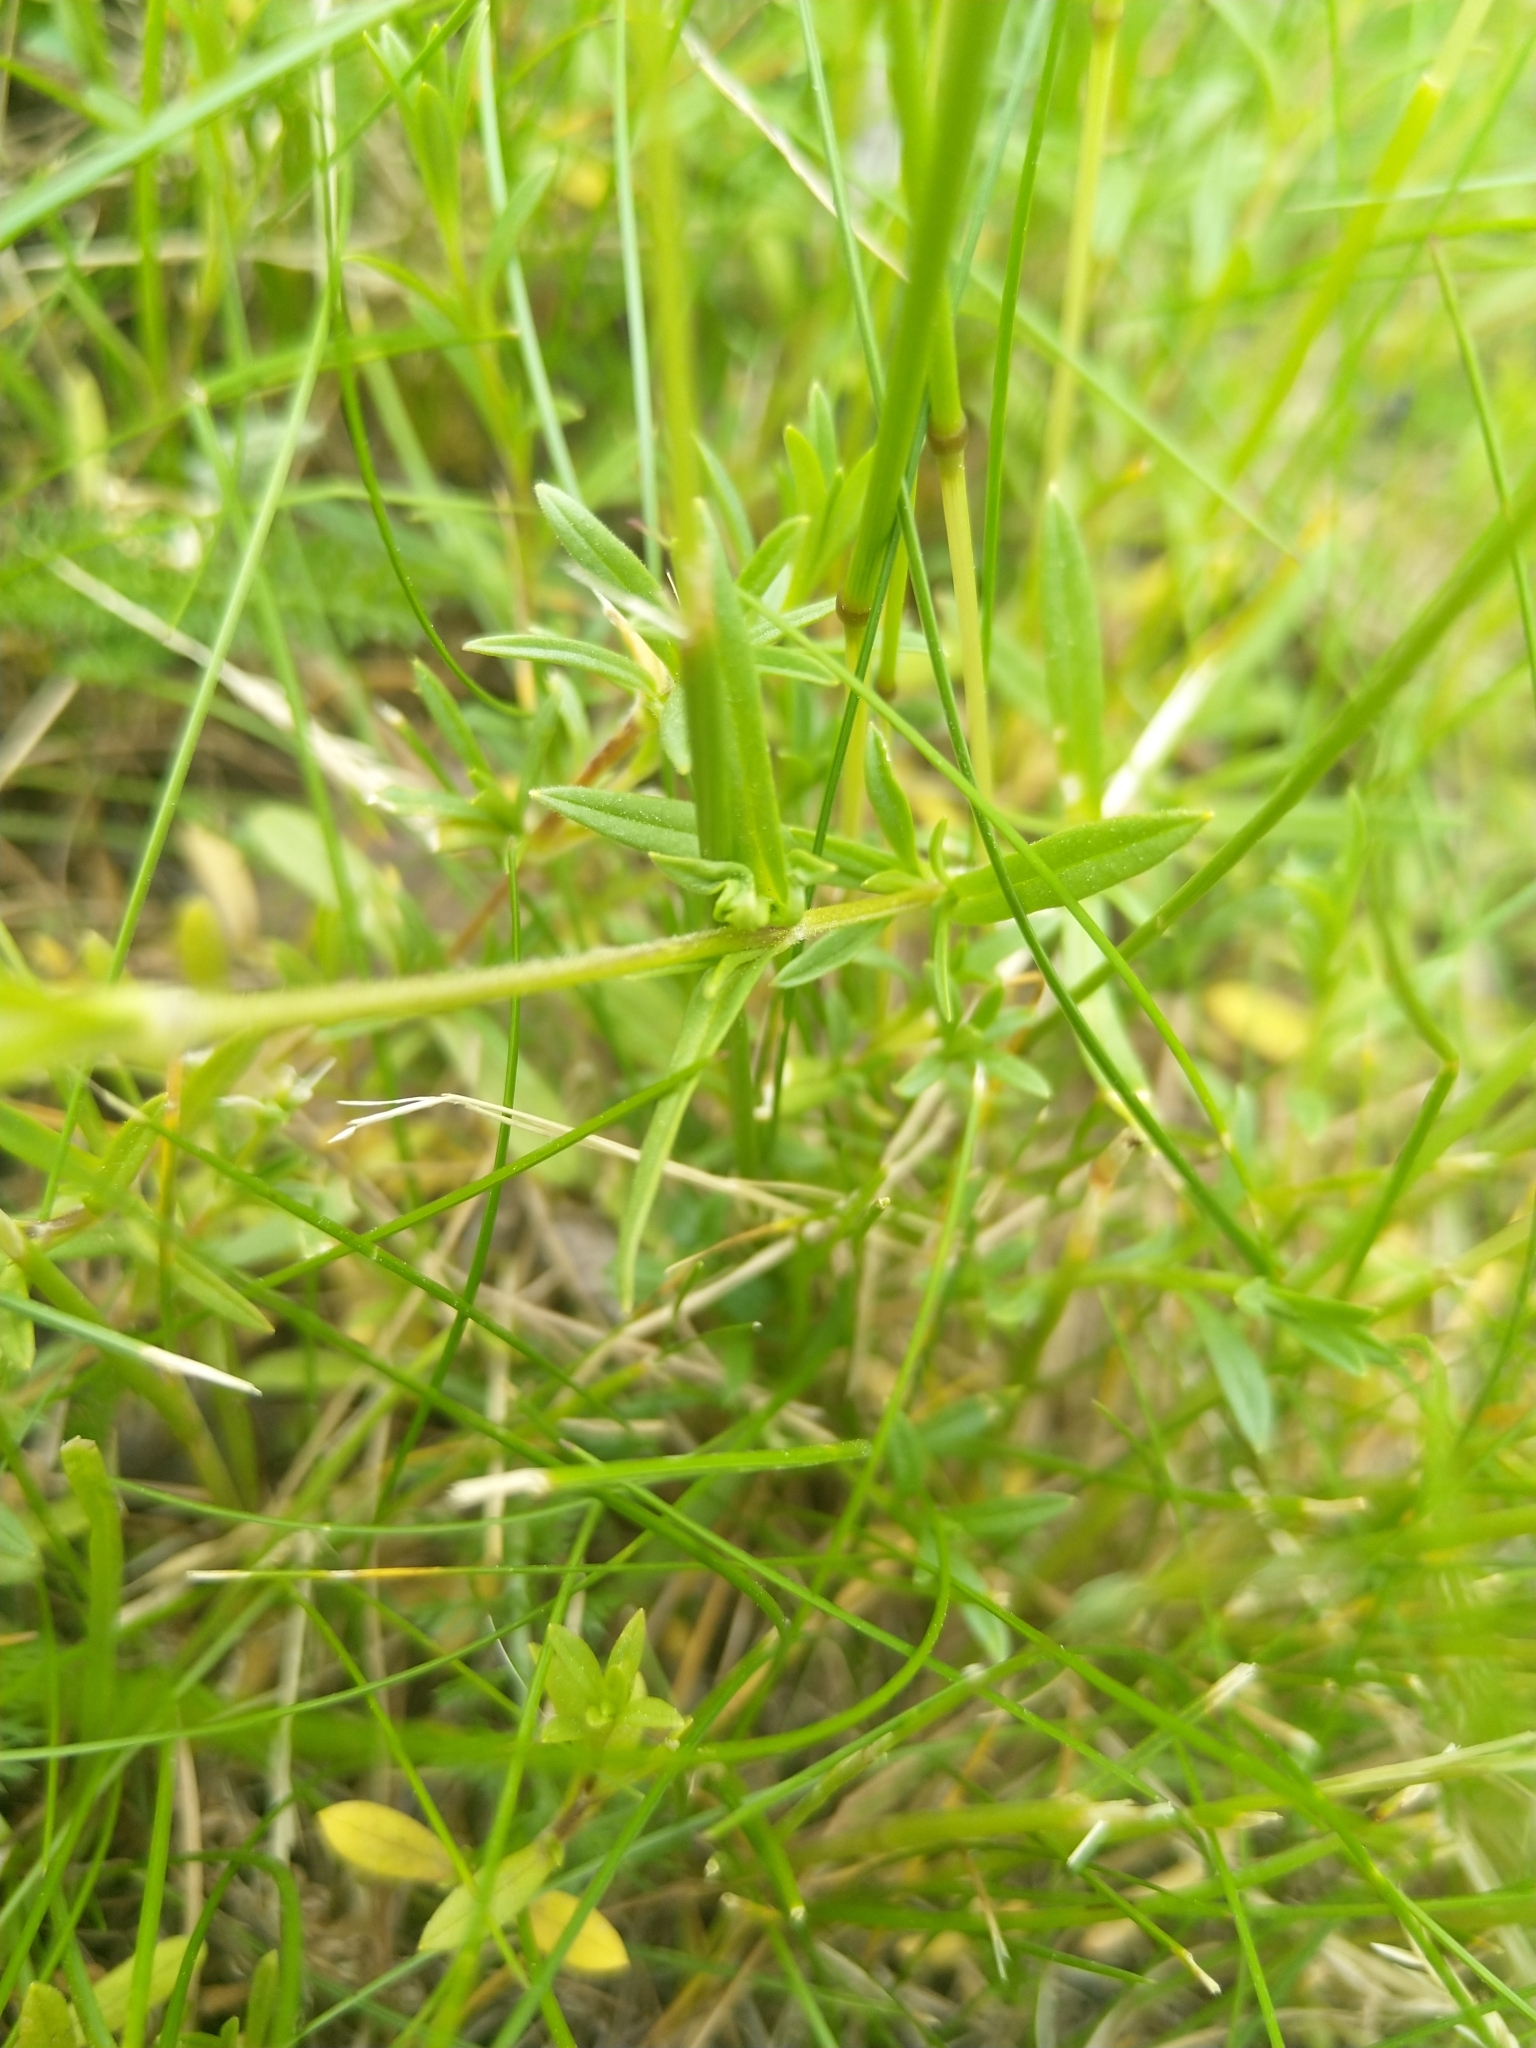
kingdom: Plantae
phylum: Tracheophyta
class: Magnoliopsida
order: Caryophyllales
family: Caryophyllaceae
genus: Cerastium
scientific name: Cerastium arvense
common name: Field mouse-ear
